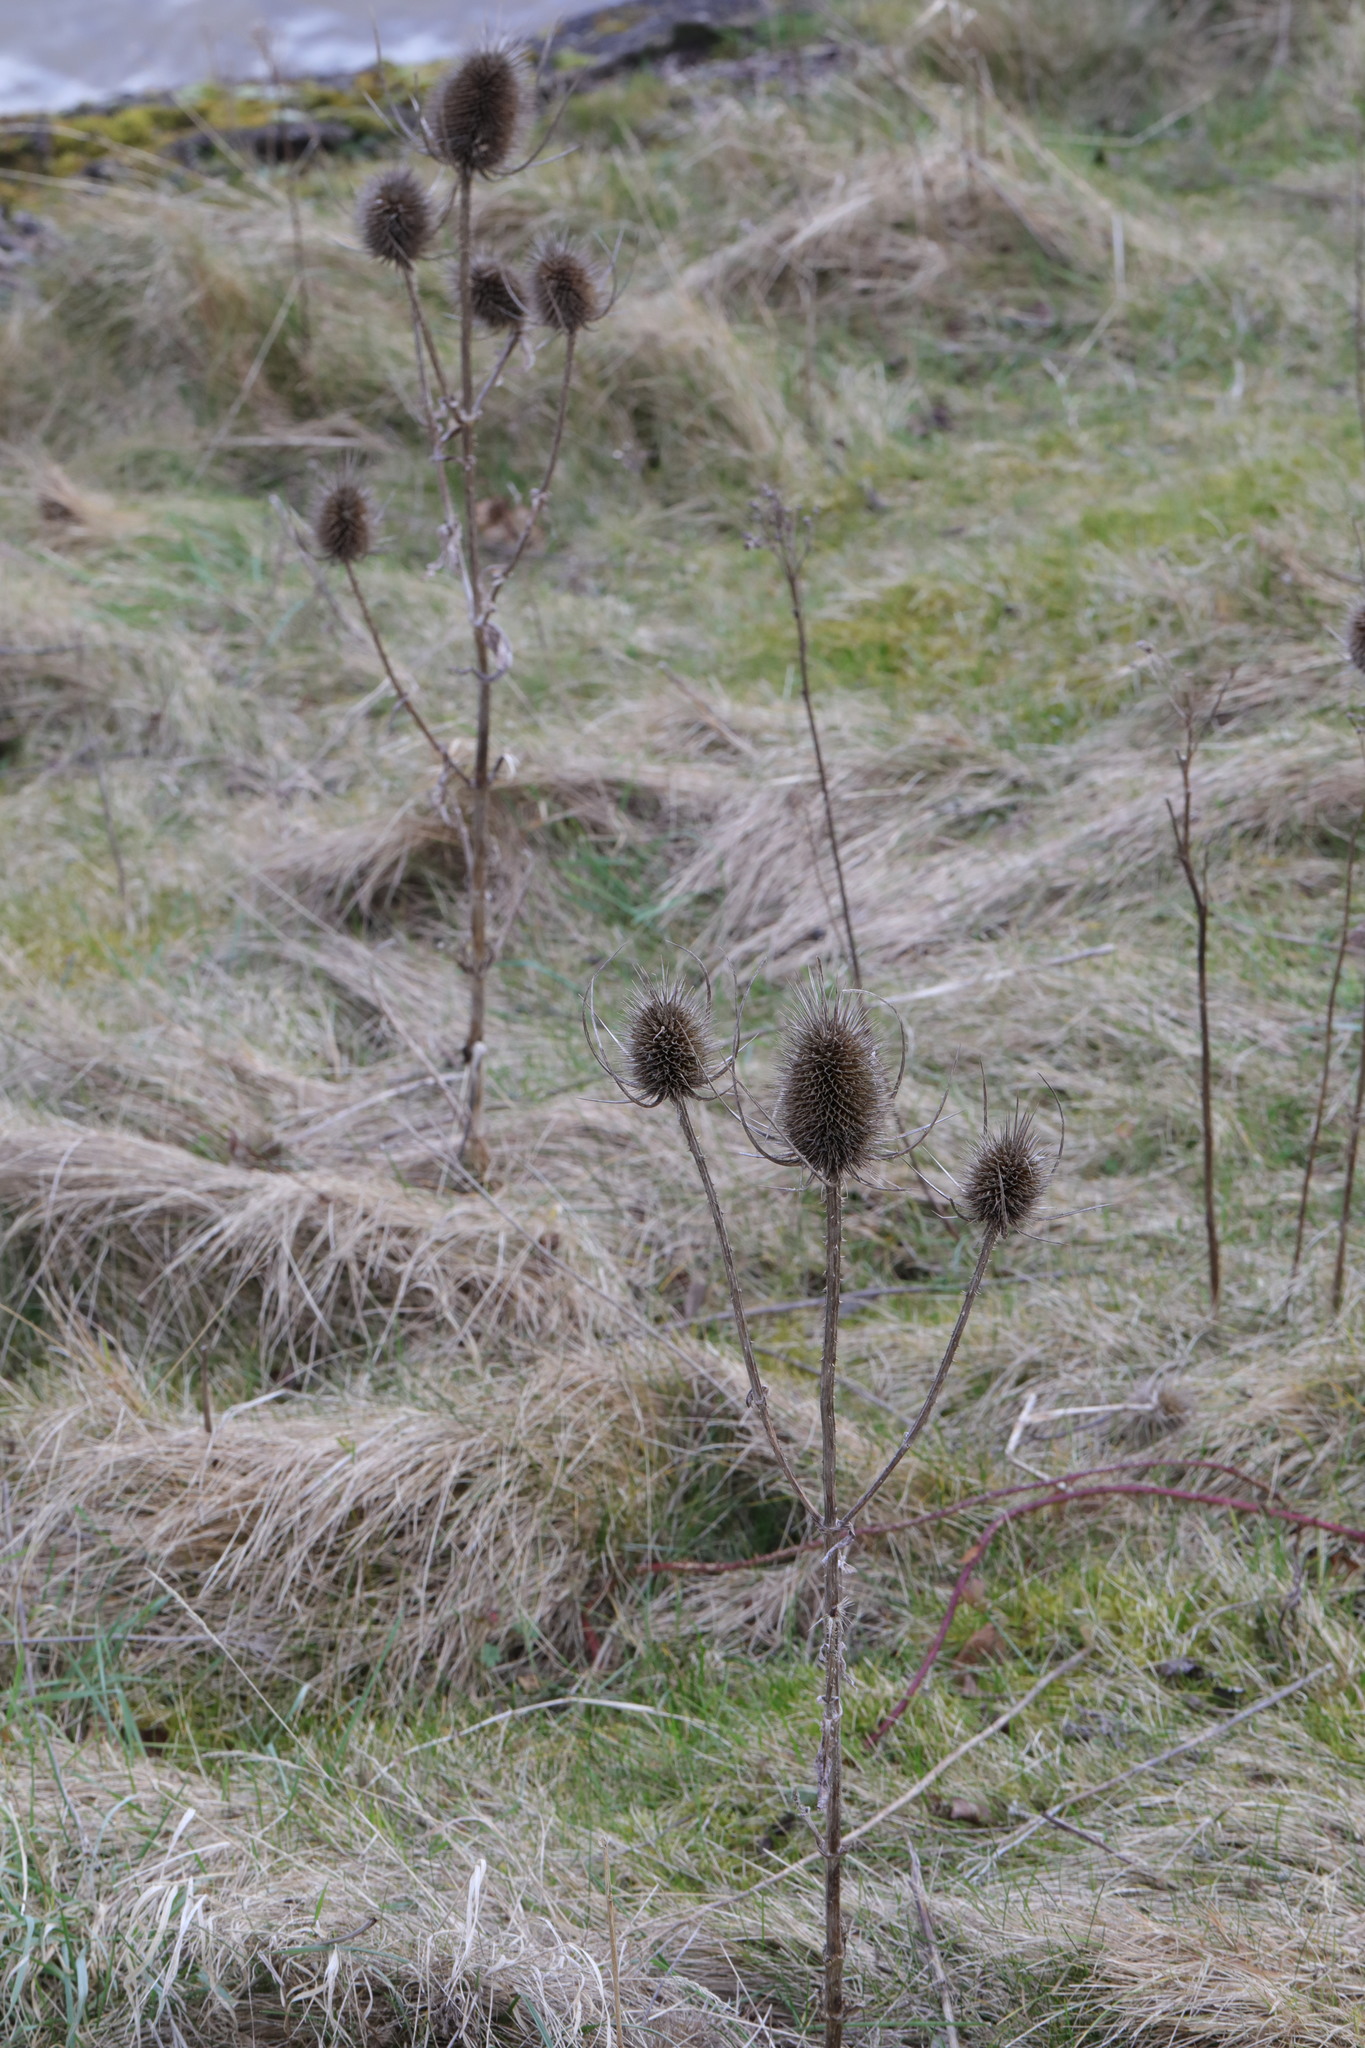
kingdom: Plantae
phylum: Tracheophyta
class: Magnoliopsida
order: Dipsacales
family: Caprifoliaceae
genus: Dipsacus
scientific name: Dipsacus fullonum
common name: Teasel
